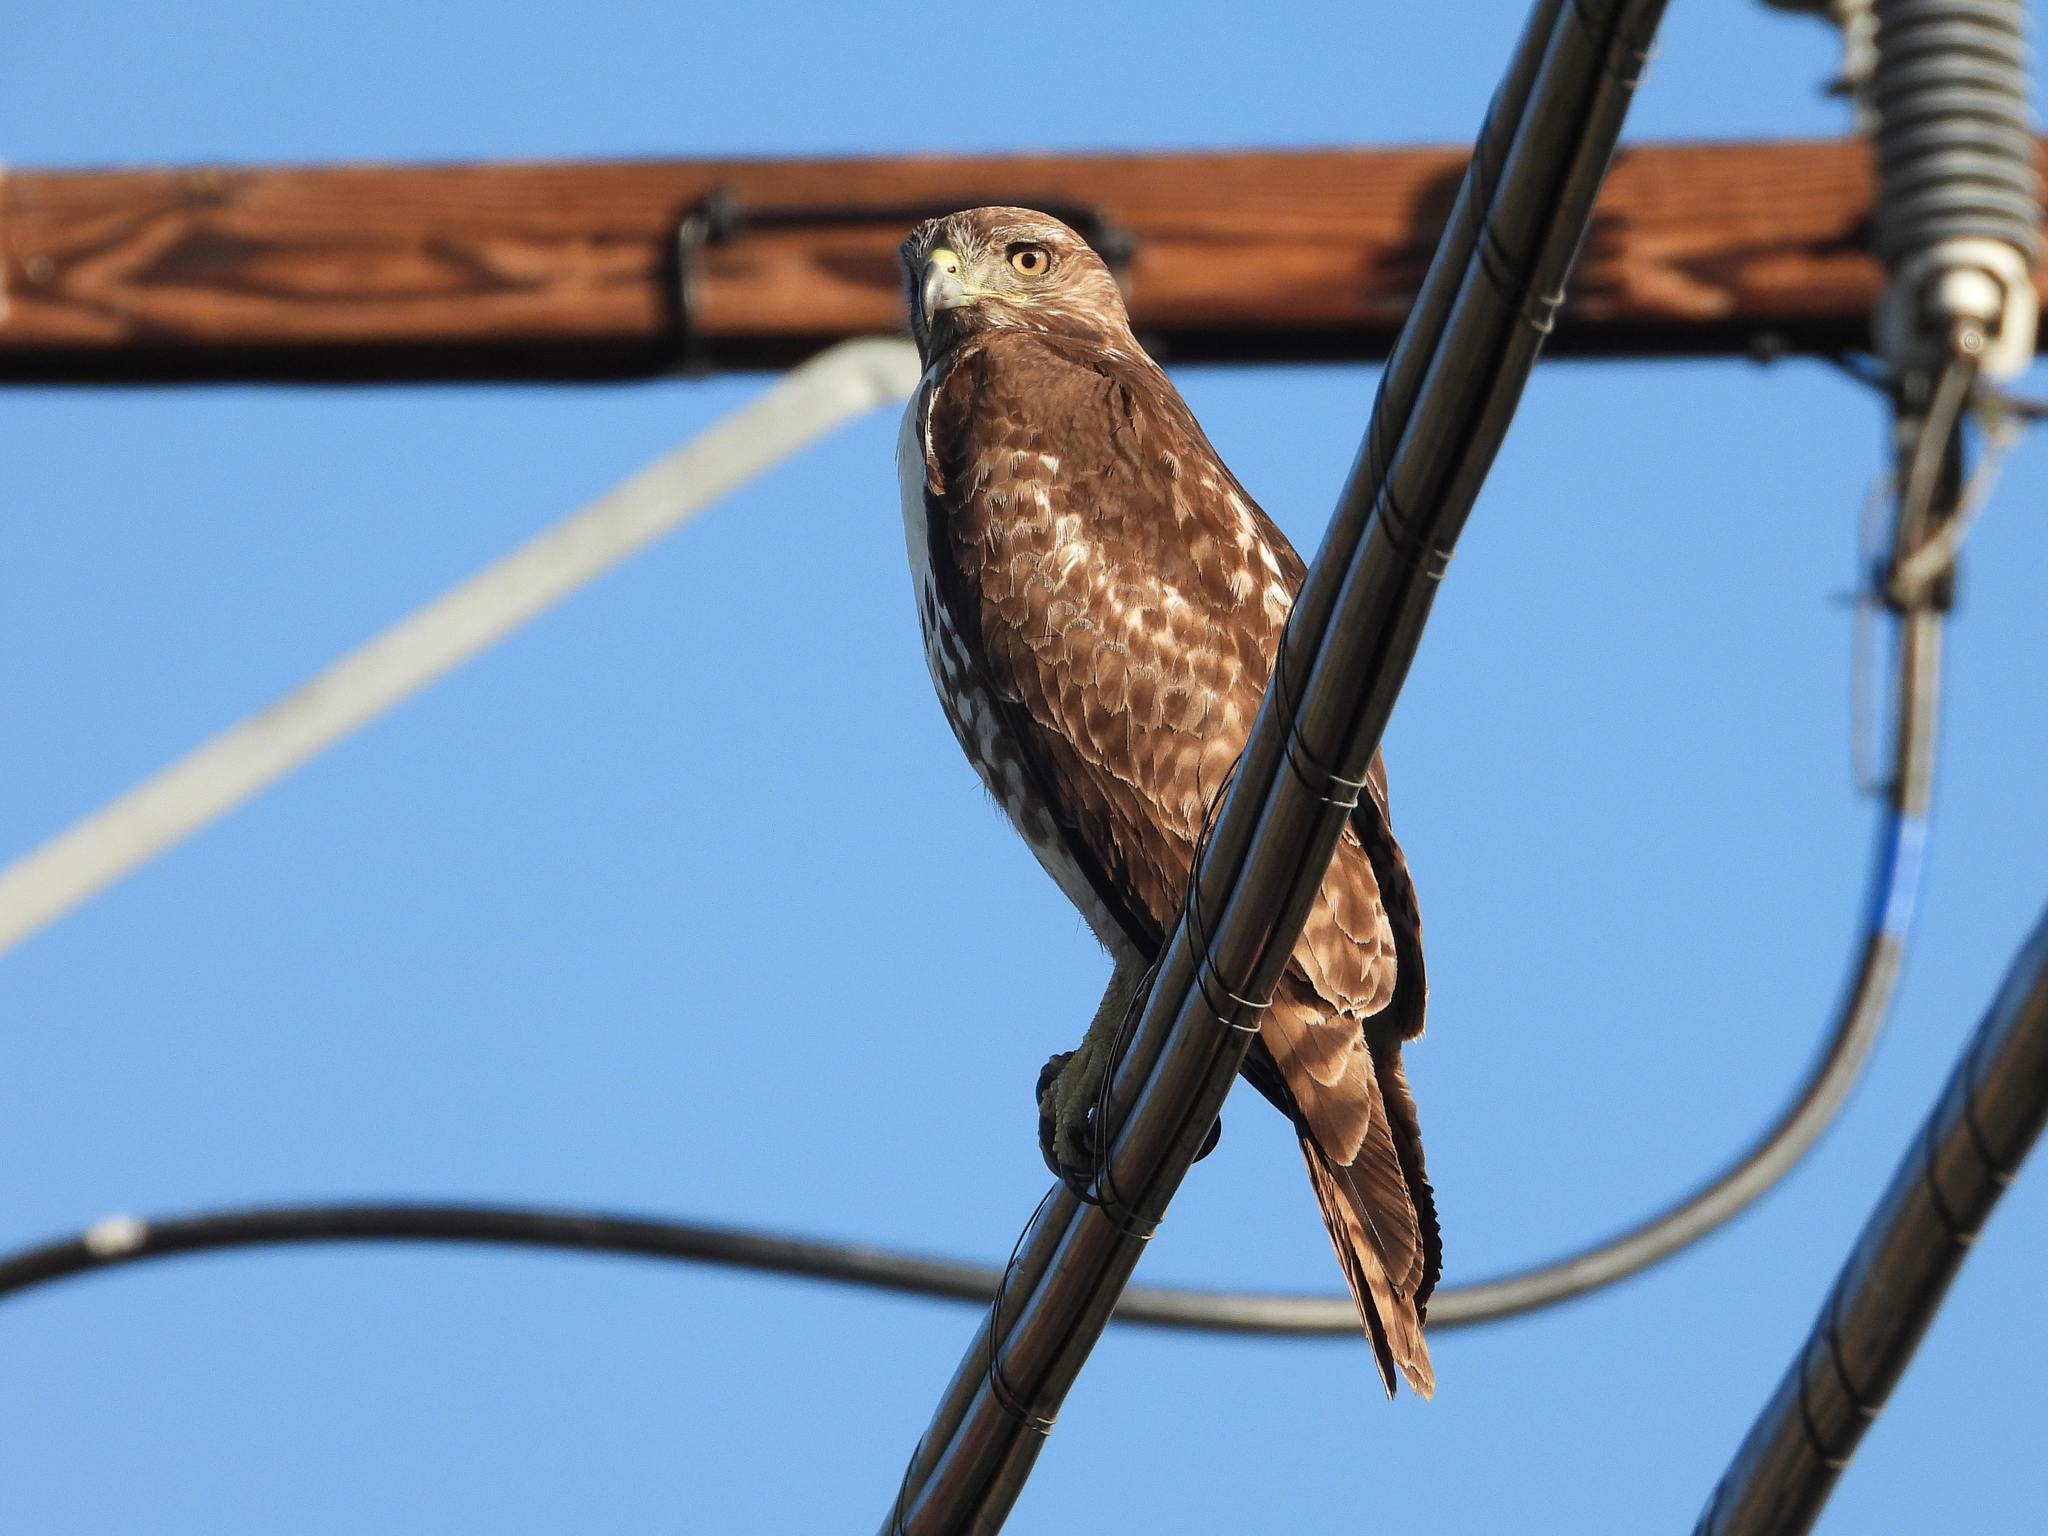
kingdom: Animalia
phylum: Chordata
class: Aves
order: Accipitriformes
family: Accipitridae
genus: Buteo
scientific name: Buteo jamaicensis
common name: Red-tailed hawk
